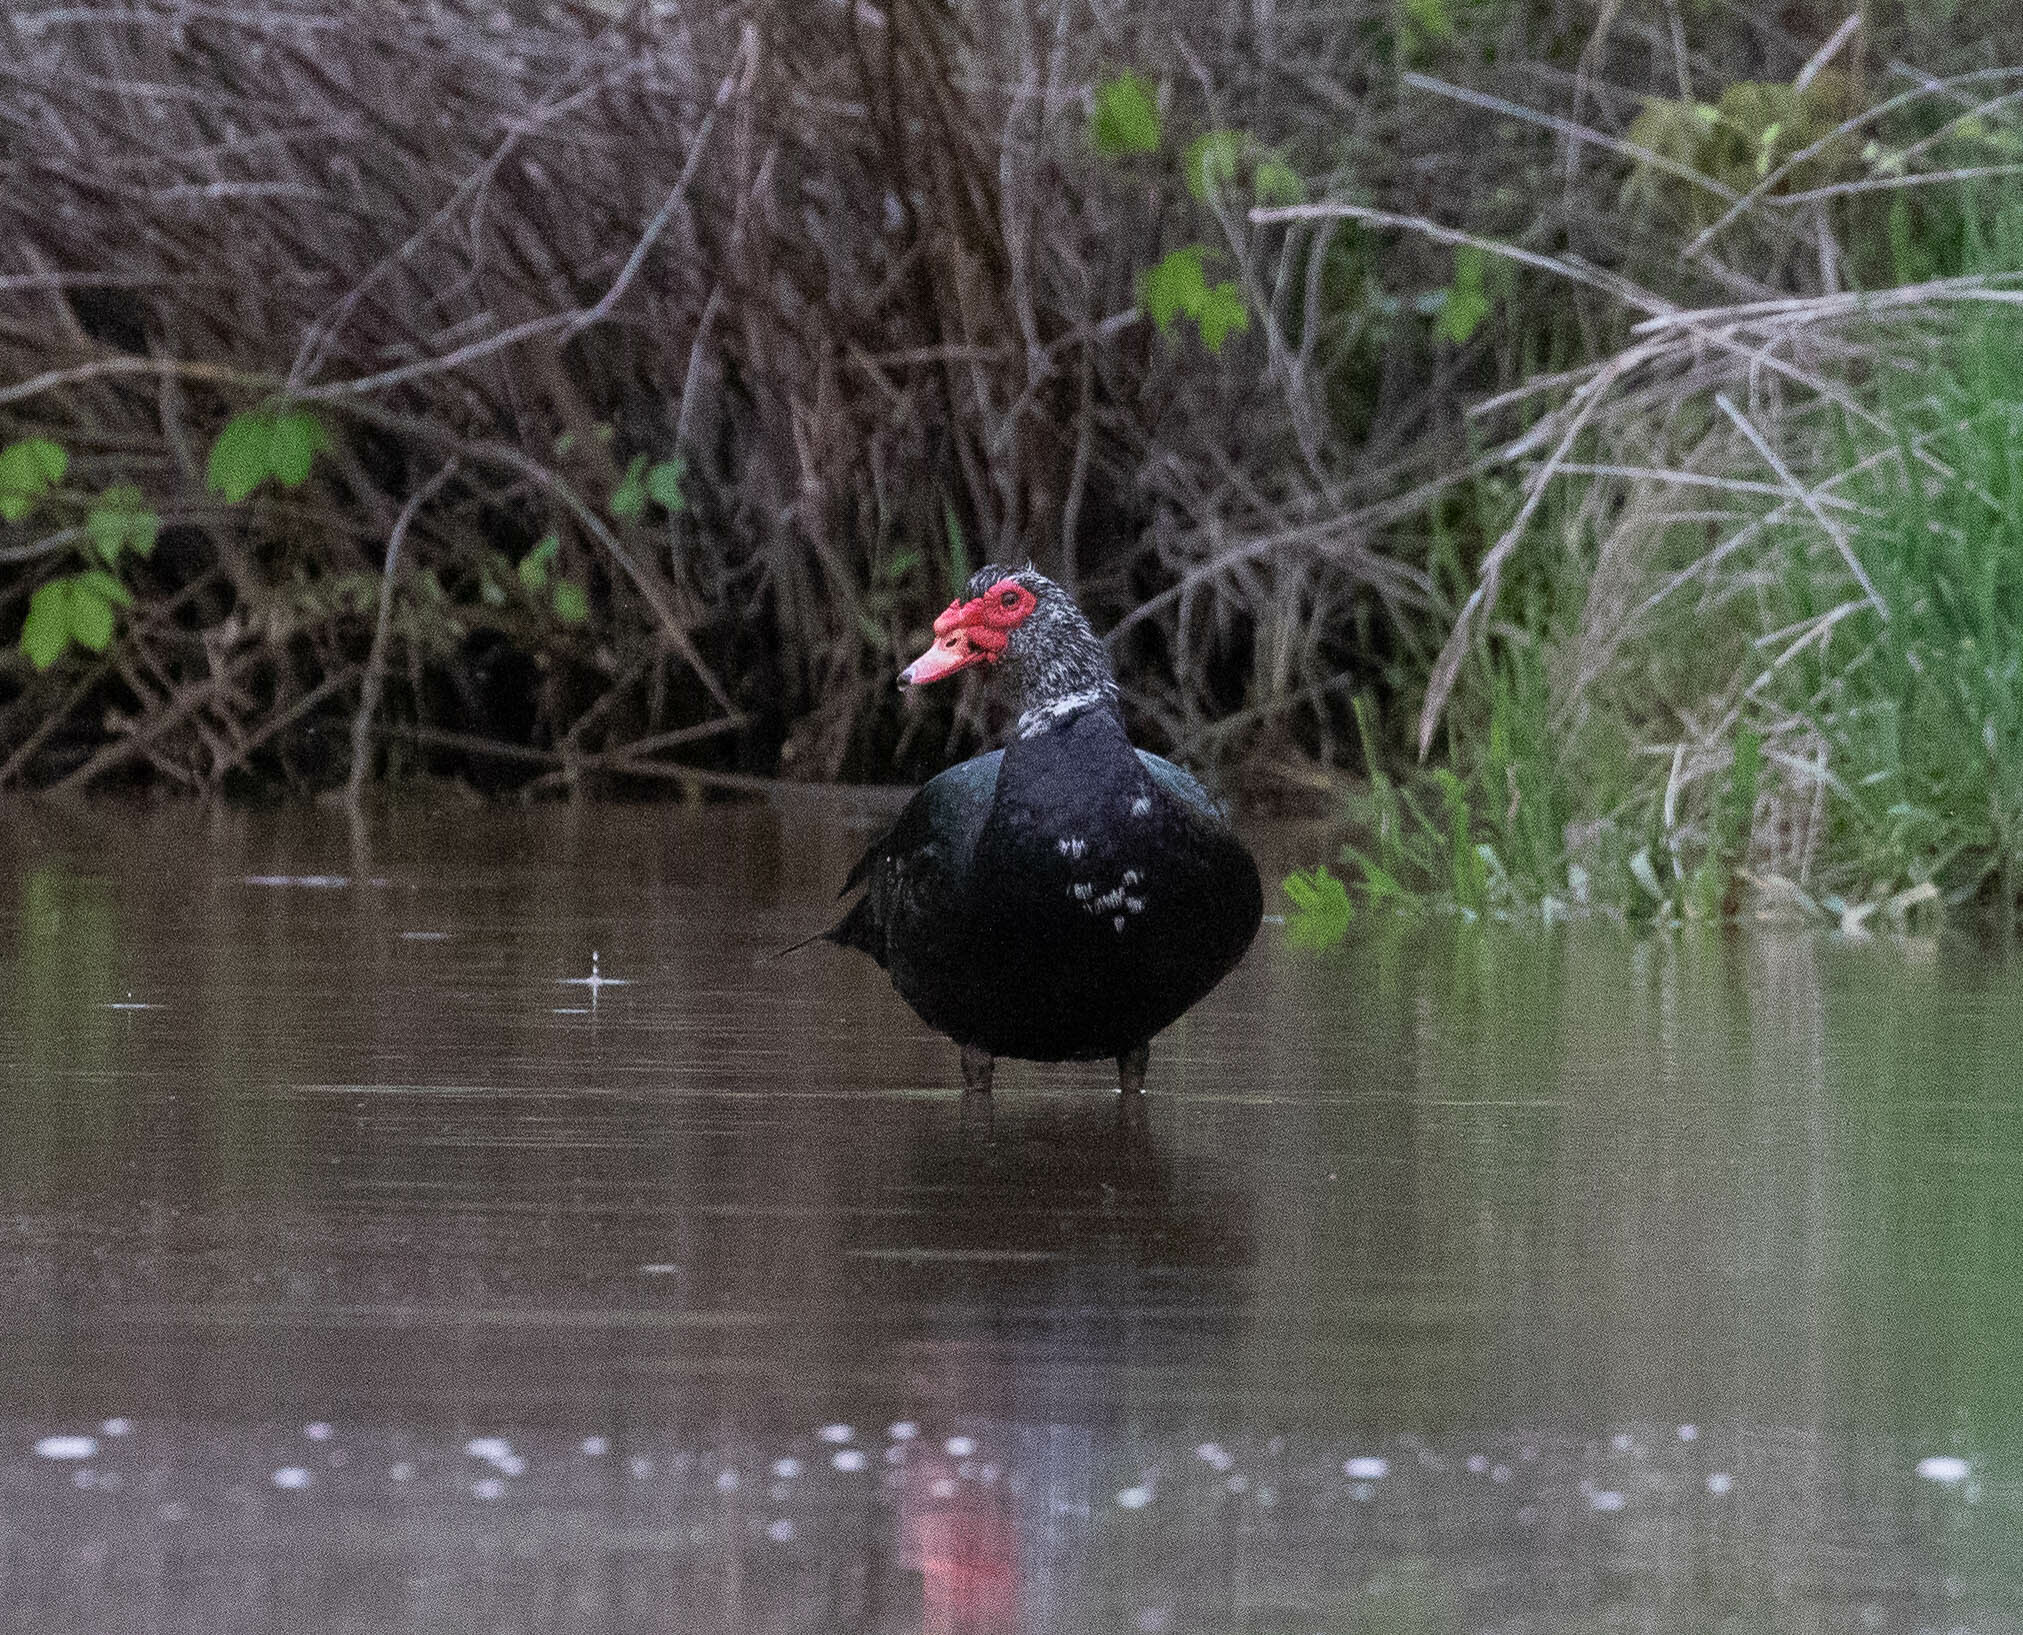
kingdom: Animalia
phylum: Chordata
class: Aves
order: Anseriformes
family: Anatidae
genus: Cairina
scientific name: Cairina moschata
